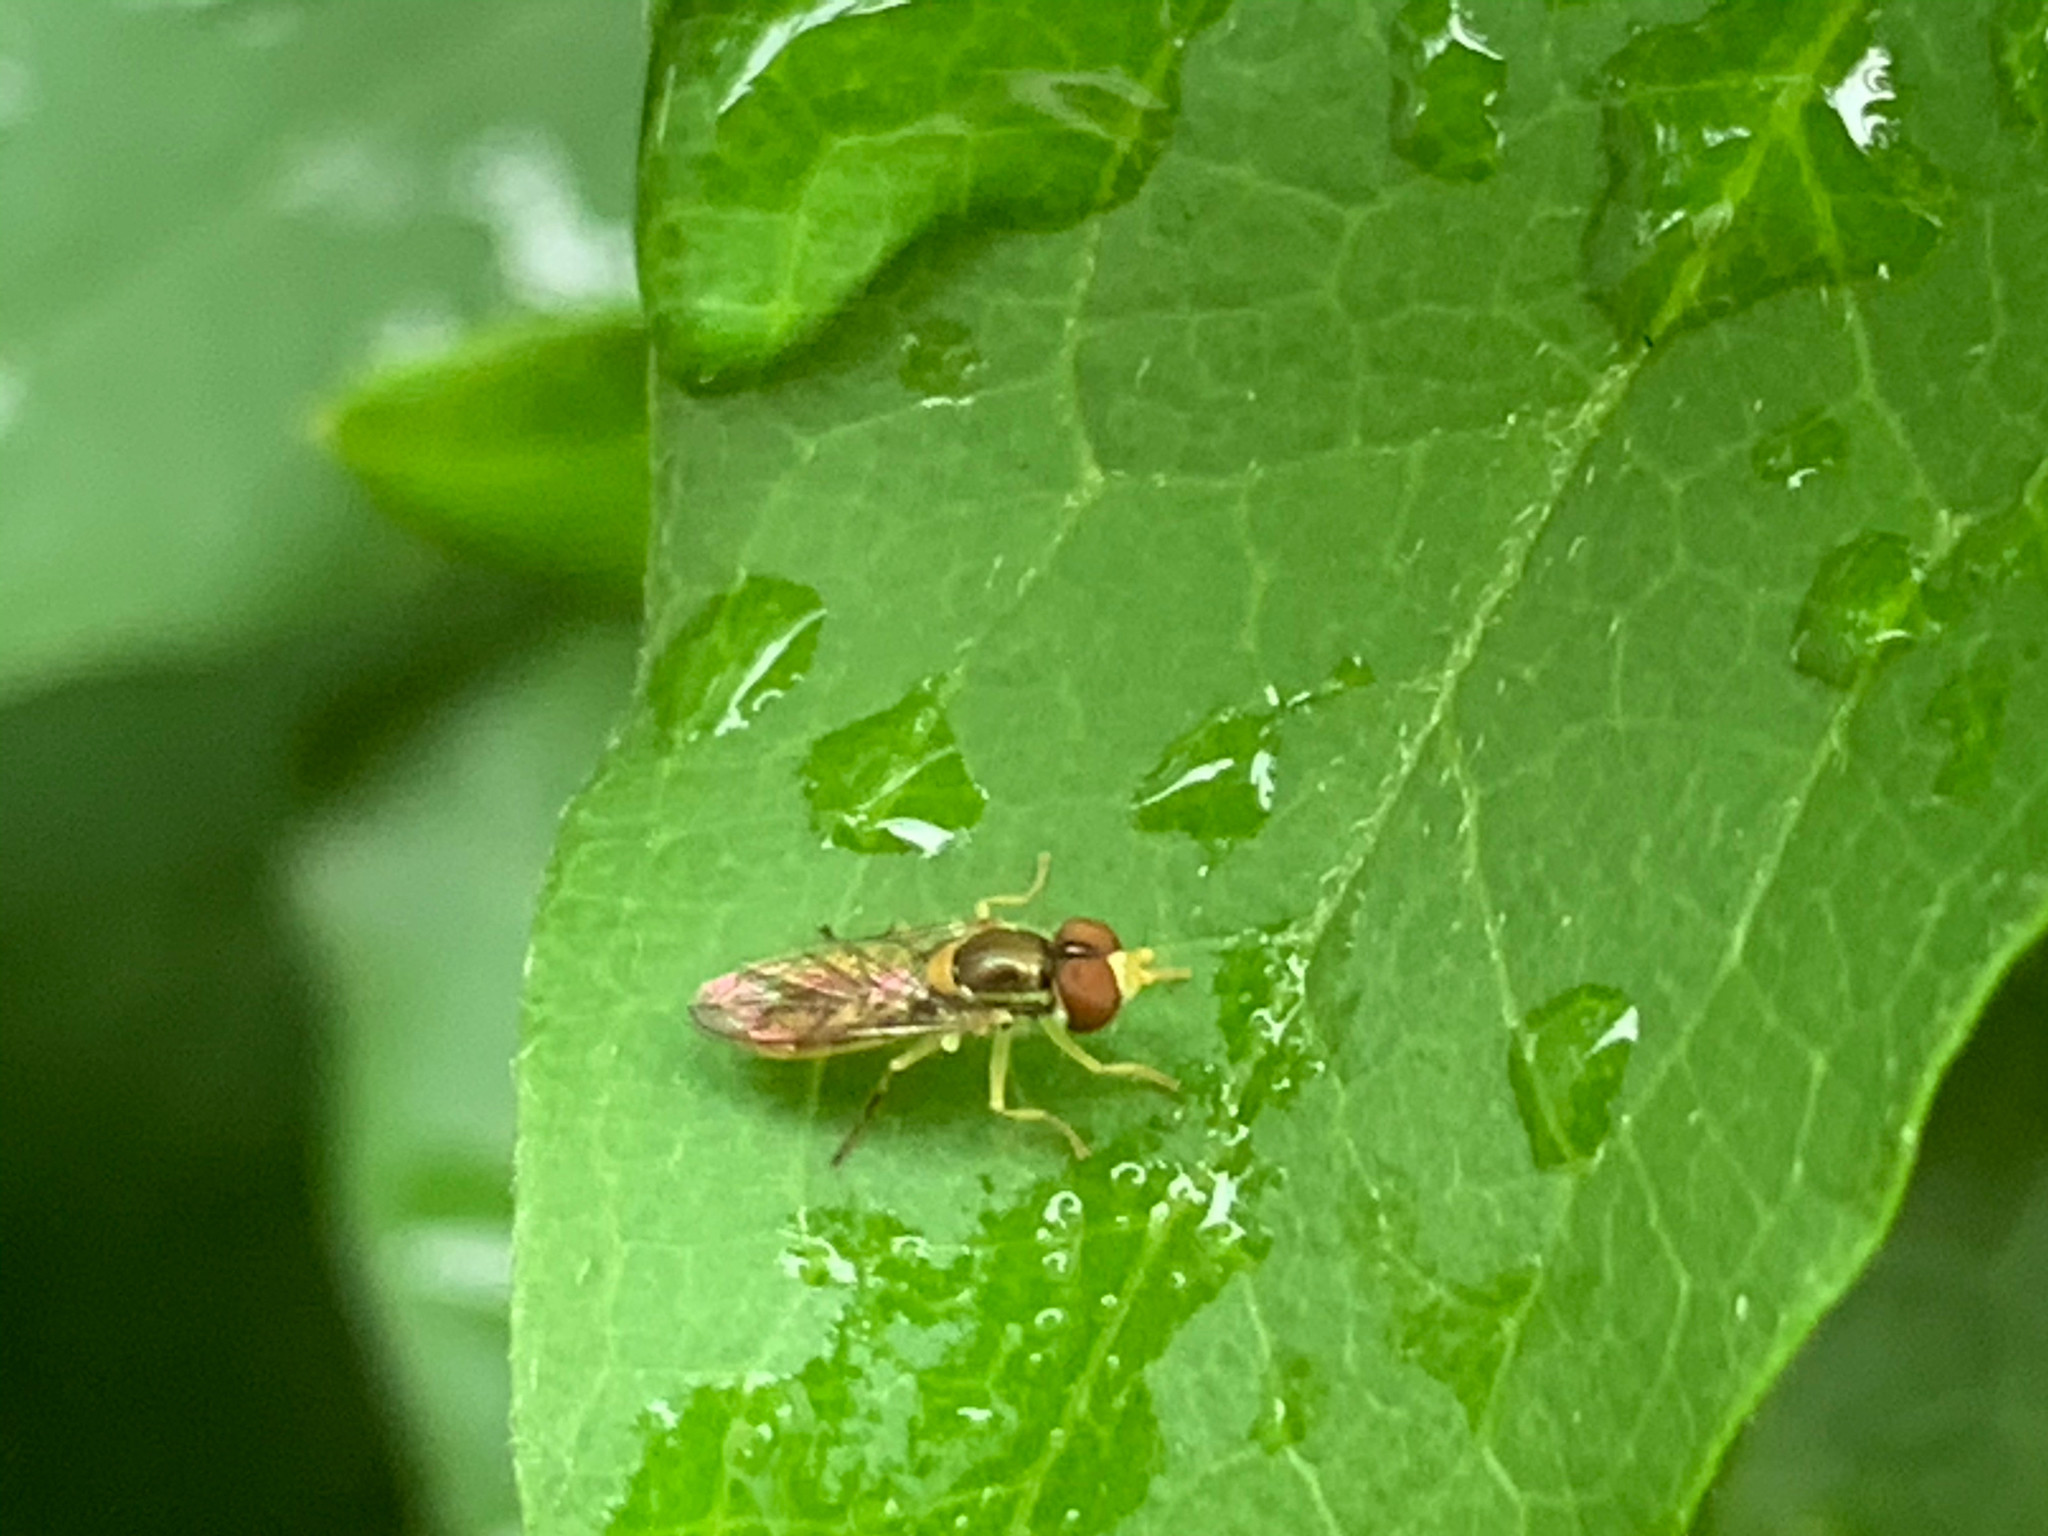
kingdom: Animalia
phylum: Arthropoda
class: Insecta
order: Diptera
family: Syrphidae
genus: Toxomerus
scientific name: Toxomerus marginatus
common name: Syrphid fly
